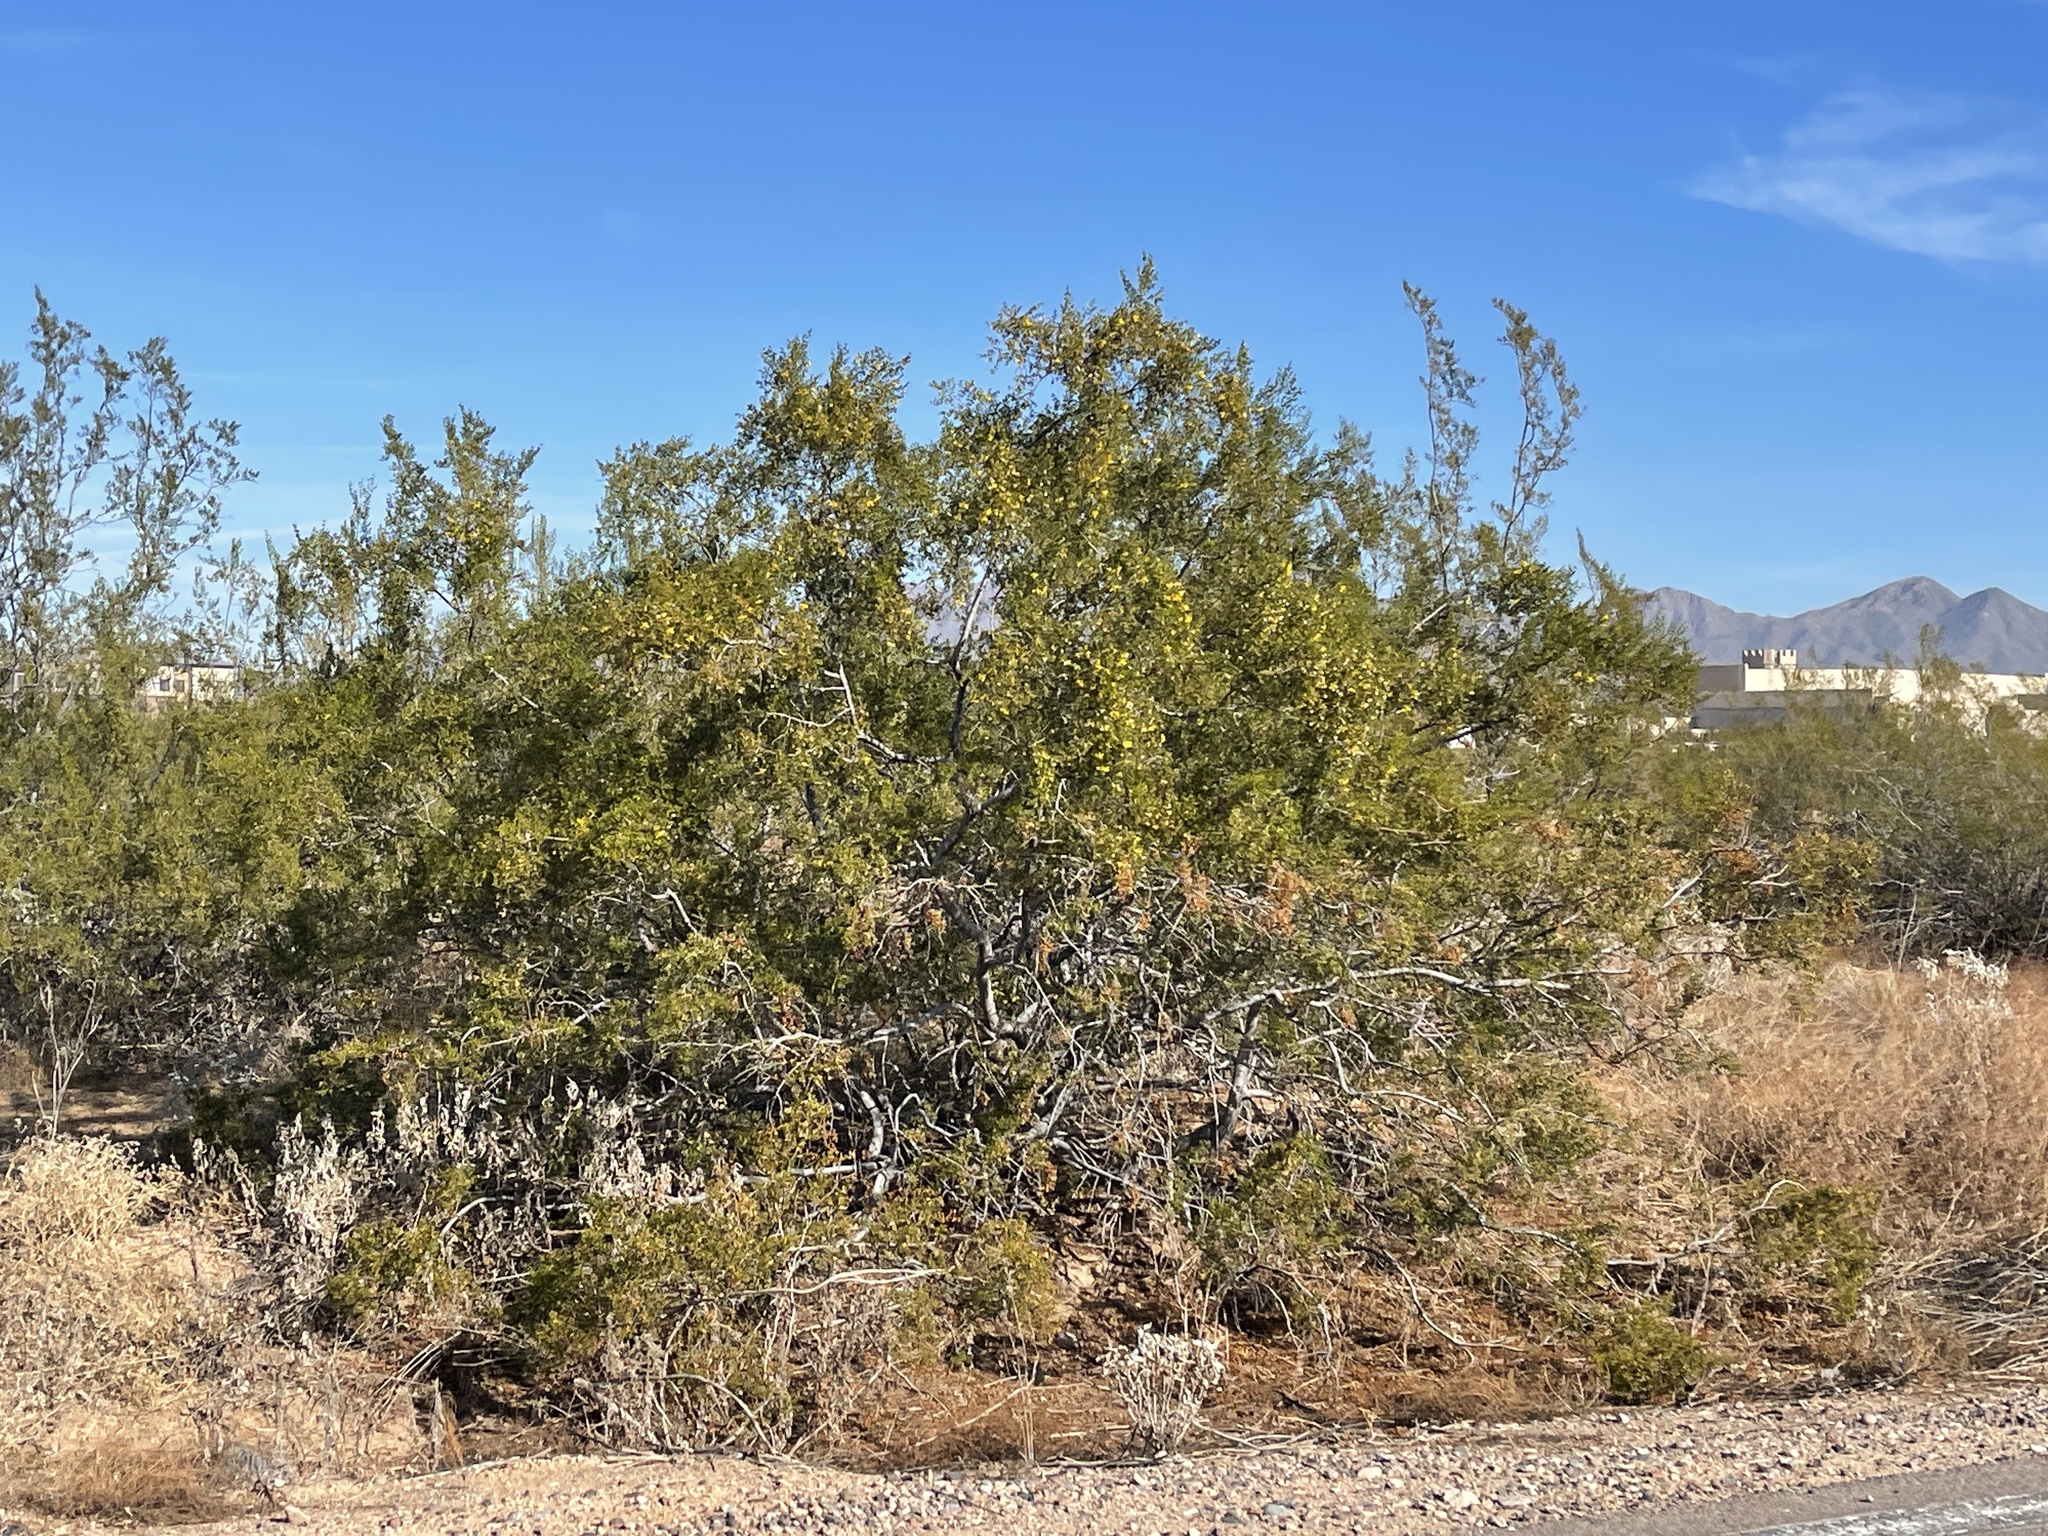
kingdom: Plantae
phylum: Tracheophyta
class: Magnoliopsida
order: Zygophyllales
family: Zygophyllaceae
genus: Larrea
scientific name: Larrea tridentata
